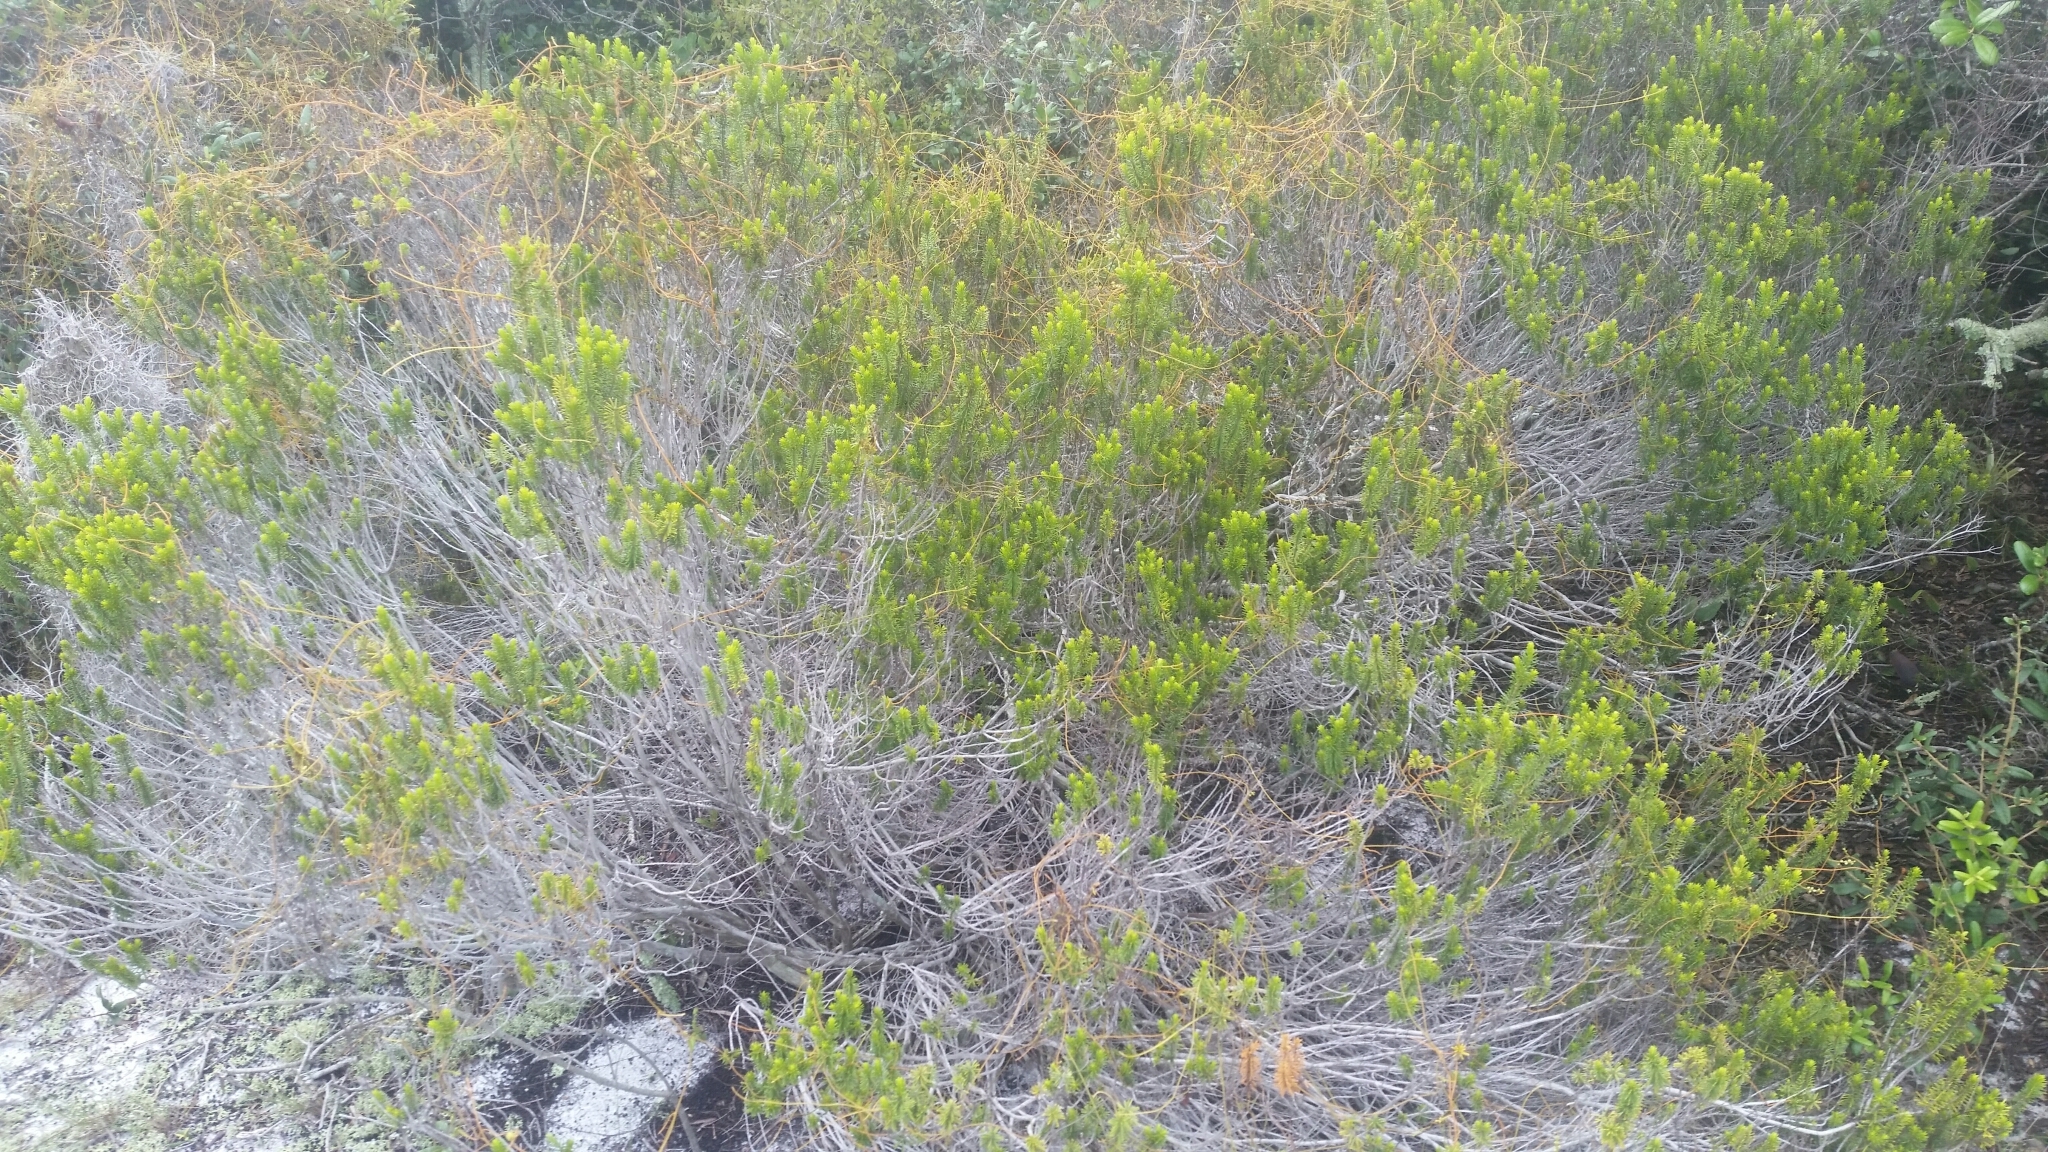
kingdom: Plantae
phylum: Tracheophyta
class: Magnoliopsida
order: Ericales
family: Ericaceae
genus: Ceratiola
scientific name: Ceratiola ericoides
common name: Sandhill-rosemary
